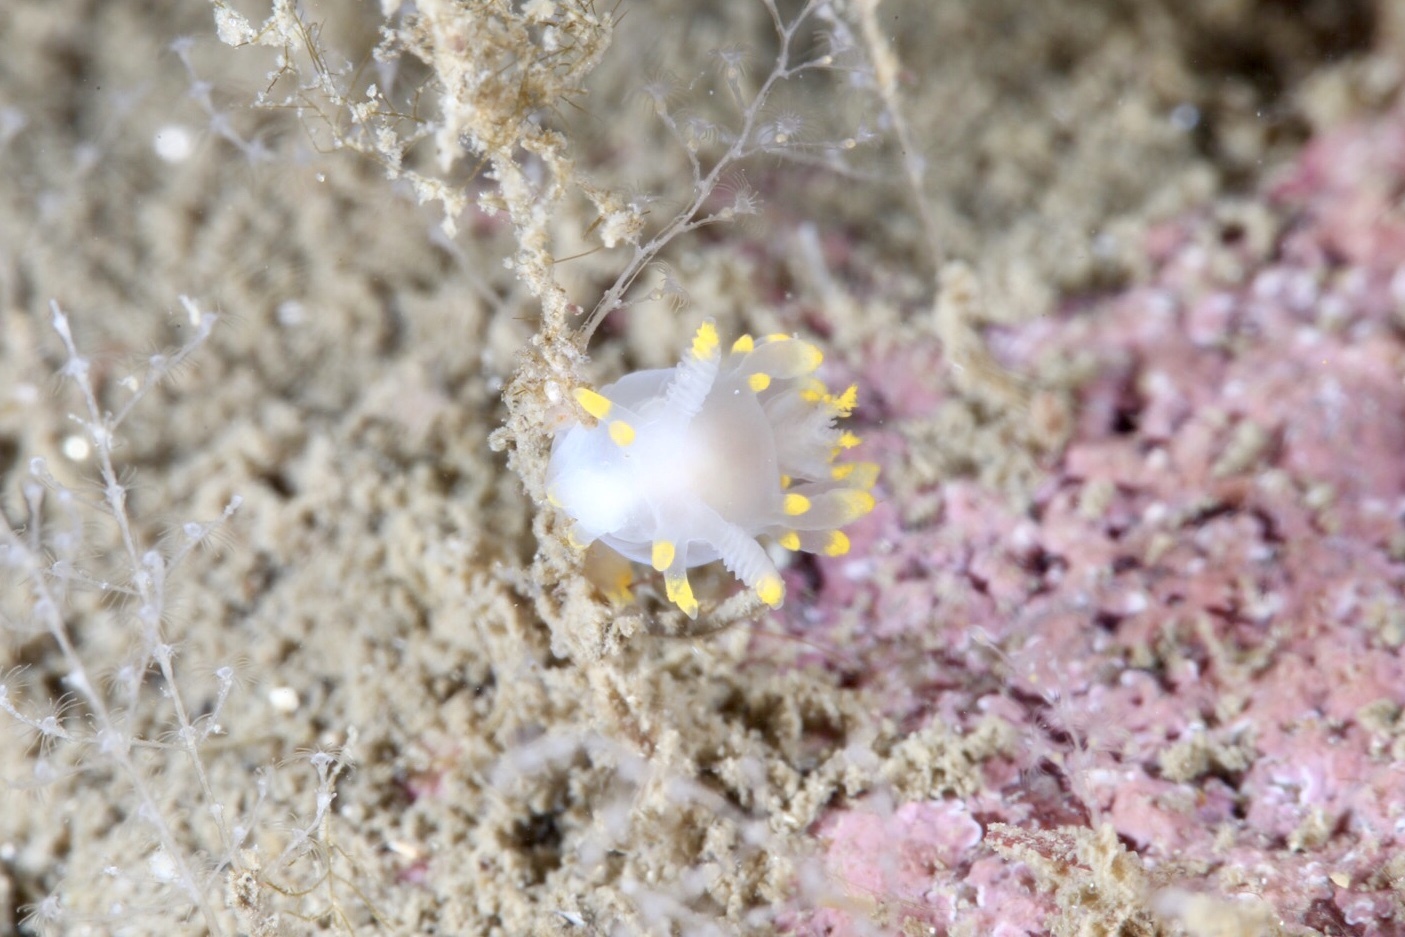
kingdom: Animalia
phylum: Mollusca
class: Gastropoda
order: Nudibranchia
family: Goniodorididae
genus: Ancula
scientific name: Ancula gibbosa
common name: Atlantic ancula
